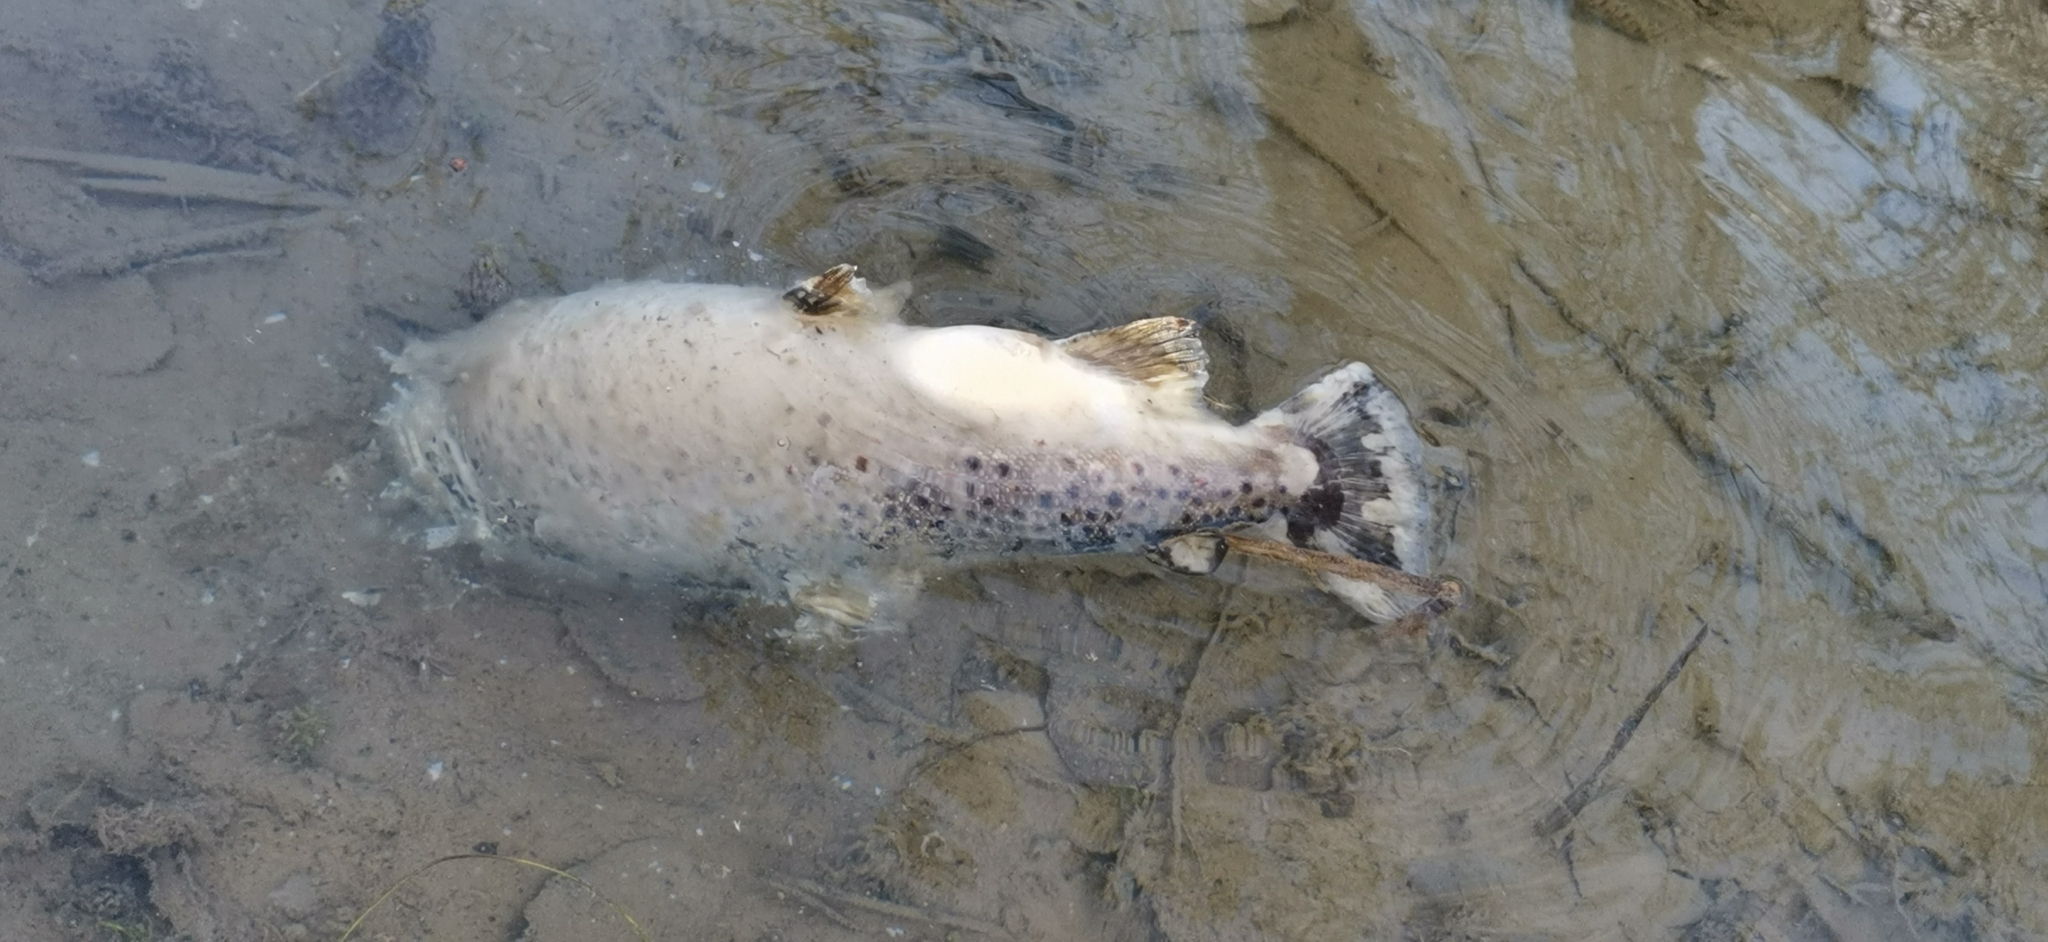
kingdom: Animalia
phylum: Chordata
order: Salmoniformes
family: Salmonidae
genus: Salmo
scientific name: Salmo trutta
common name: Brown trout
